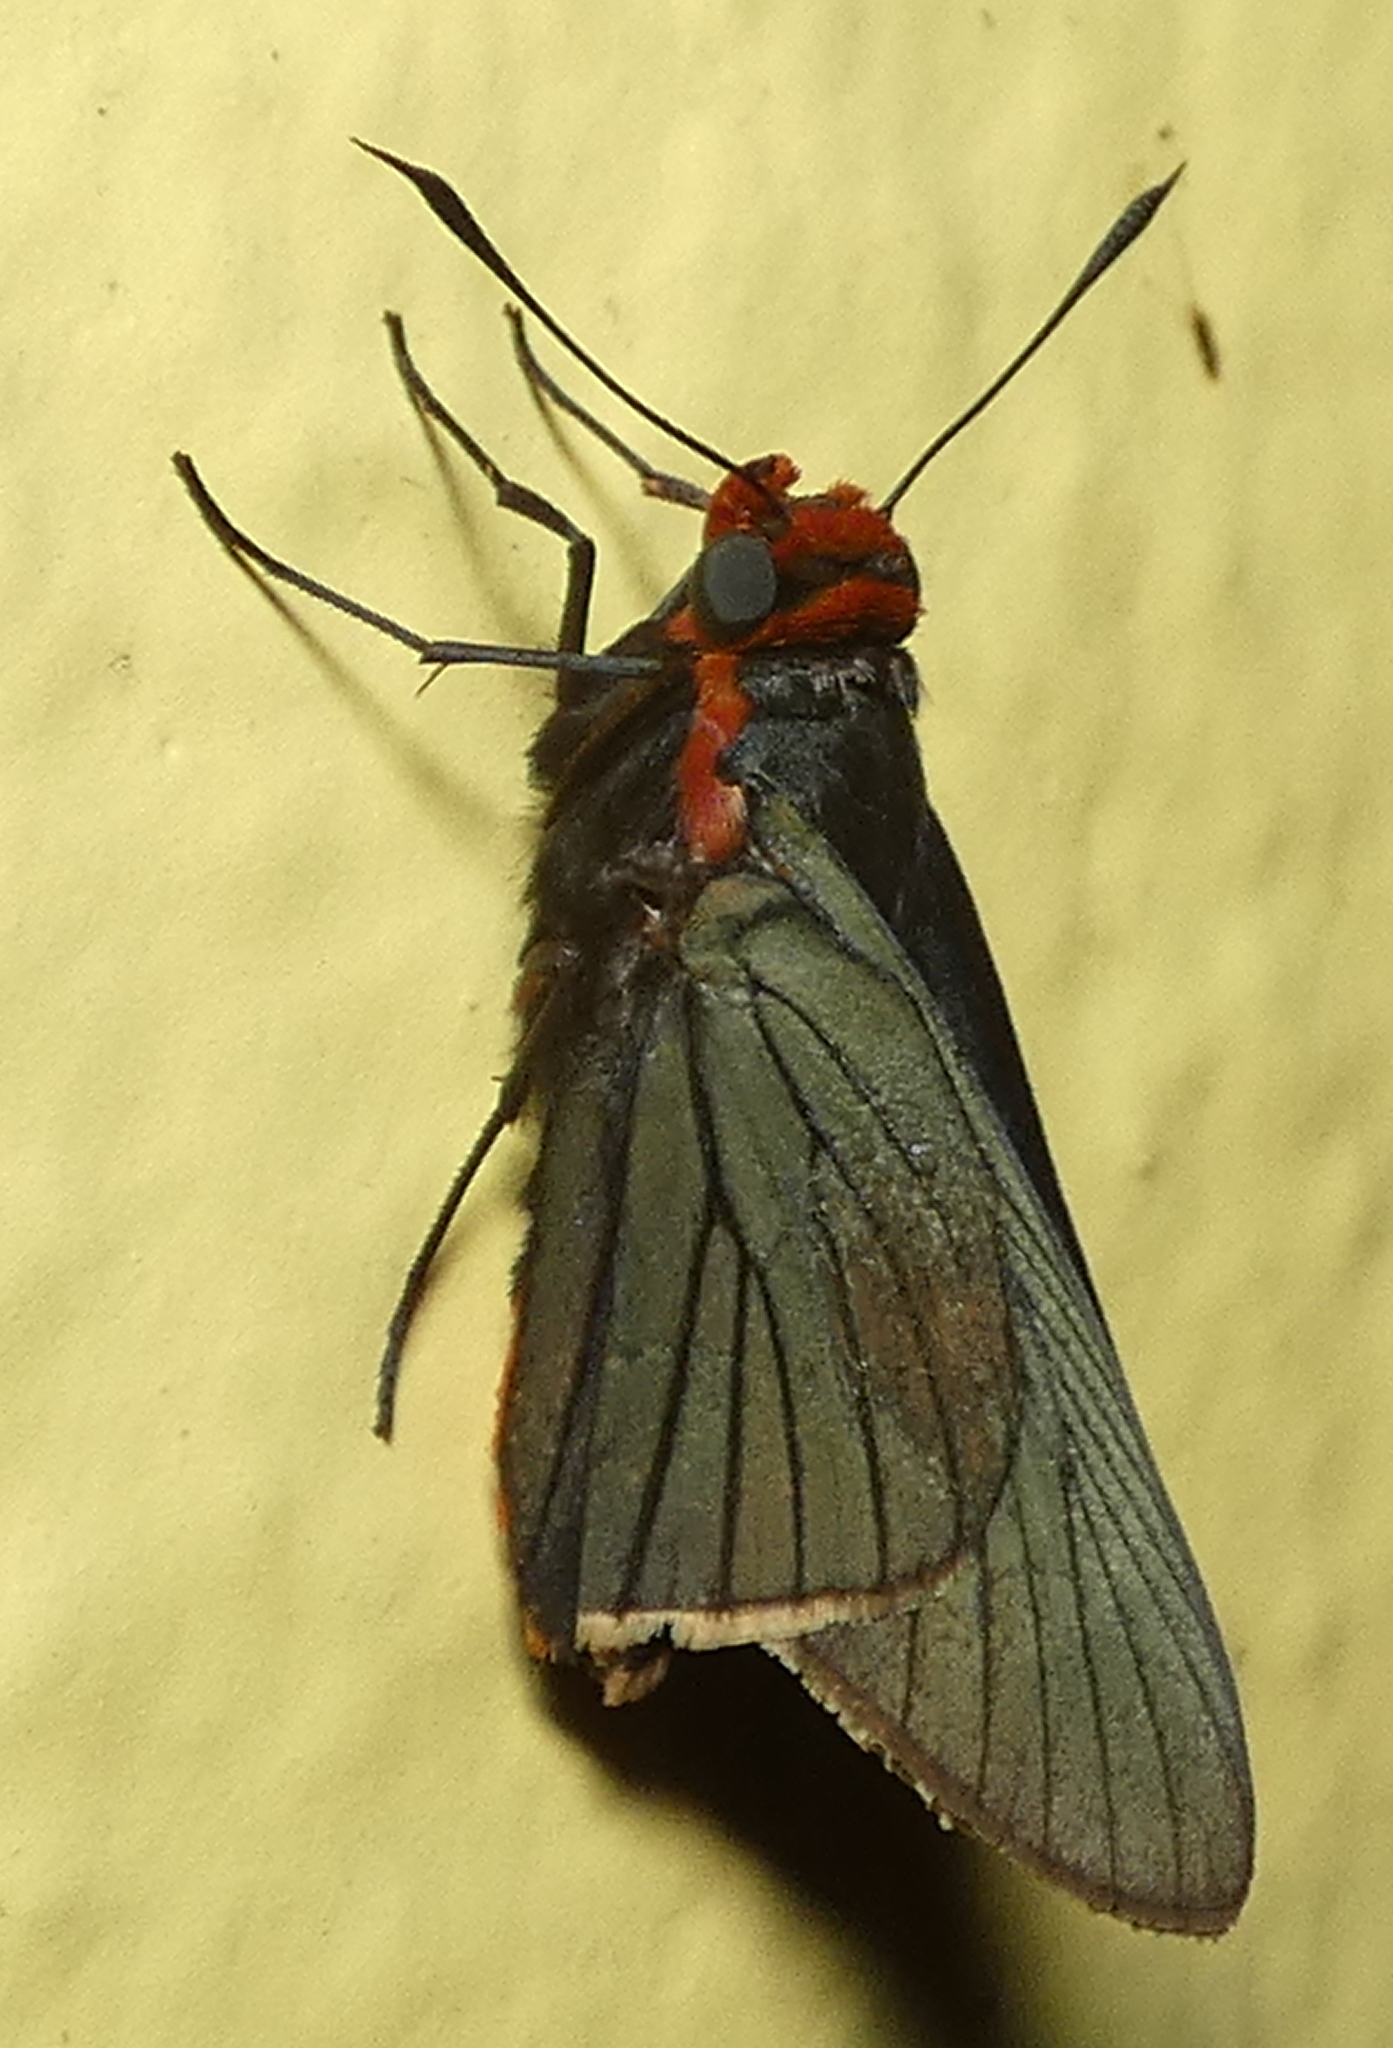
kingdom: Animalia
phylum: Arthropoda
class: Insecta
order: Lepidoptera
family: Hesperiidae
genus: Pyrrhopygopsis
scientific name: Pyrrhopygopsis socrates
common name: Socrates skipper
